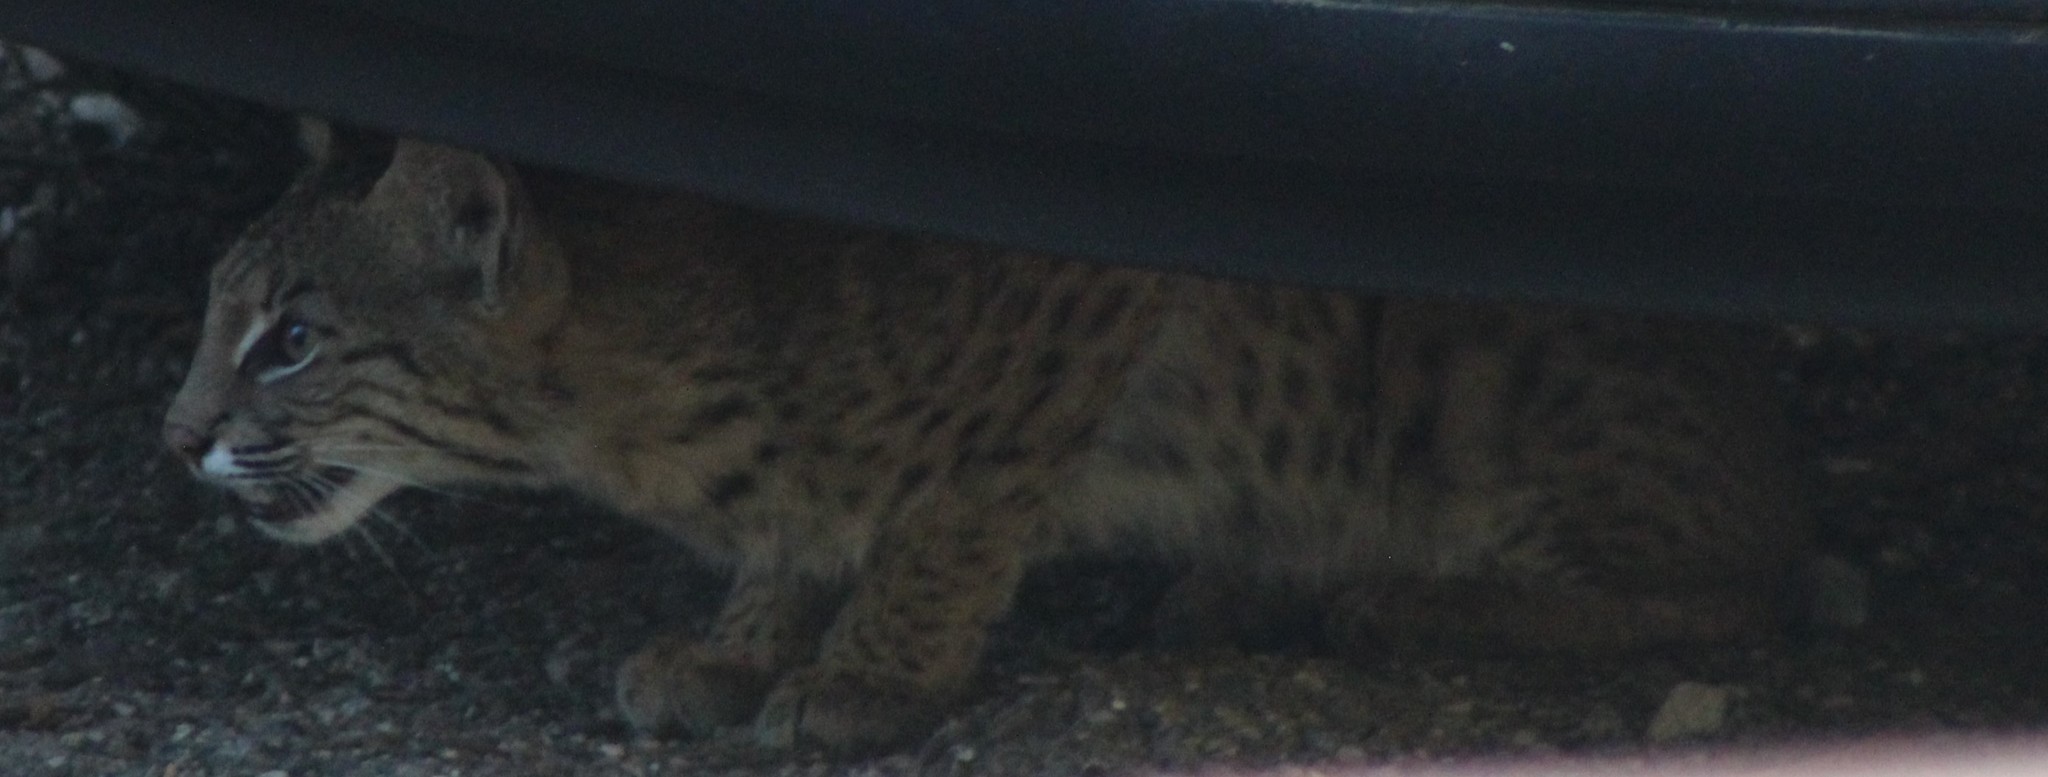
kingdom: Animalia
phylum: Chordata
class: Mammalia
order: Carnivora
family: Felidae
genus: Lynx
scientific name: Lynx rufus
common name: Bobcat
